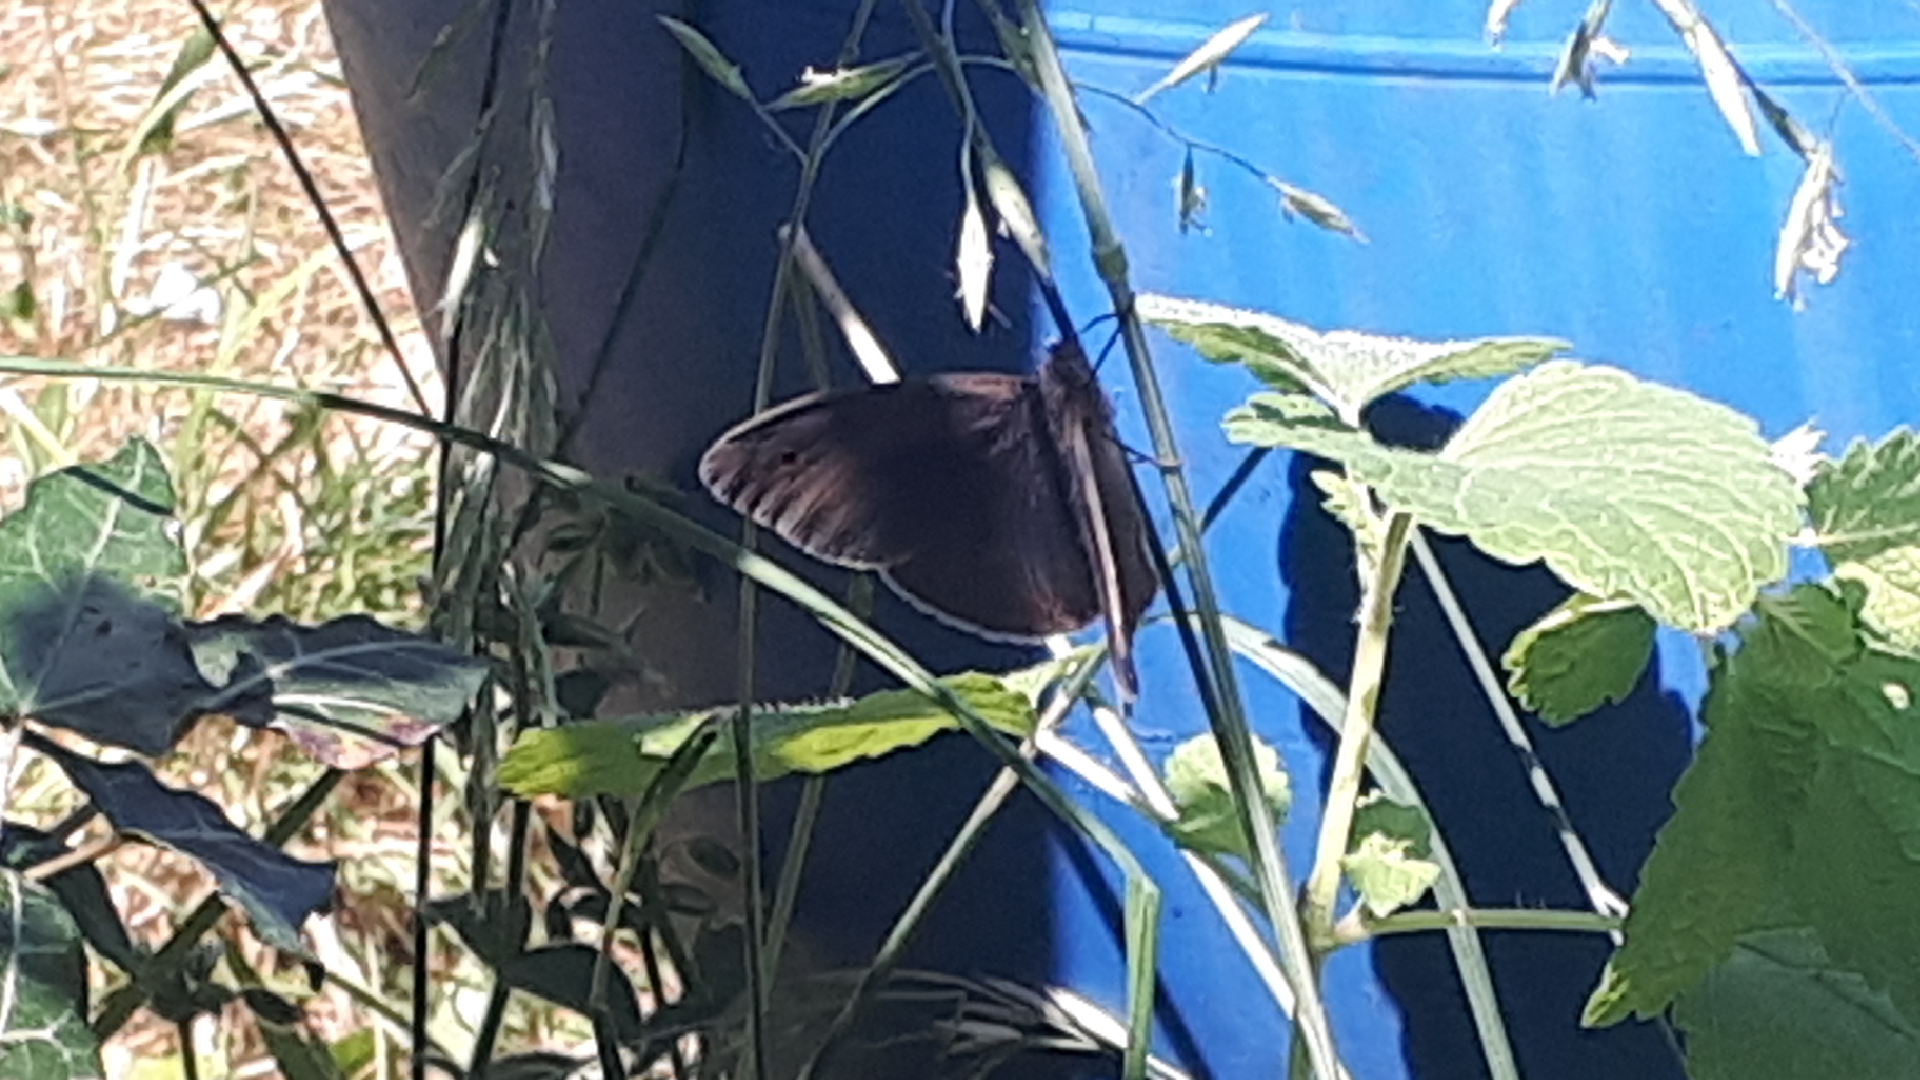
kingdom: Animalia
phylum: Arthropoda
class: Insecta
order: Lepidoptera
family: Nymphalidae
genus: Maniola
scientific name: Maniola jurtina
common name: Meadow brown
